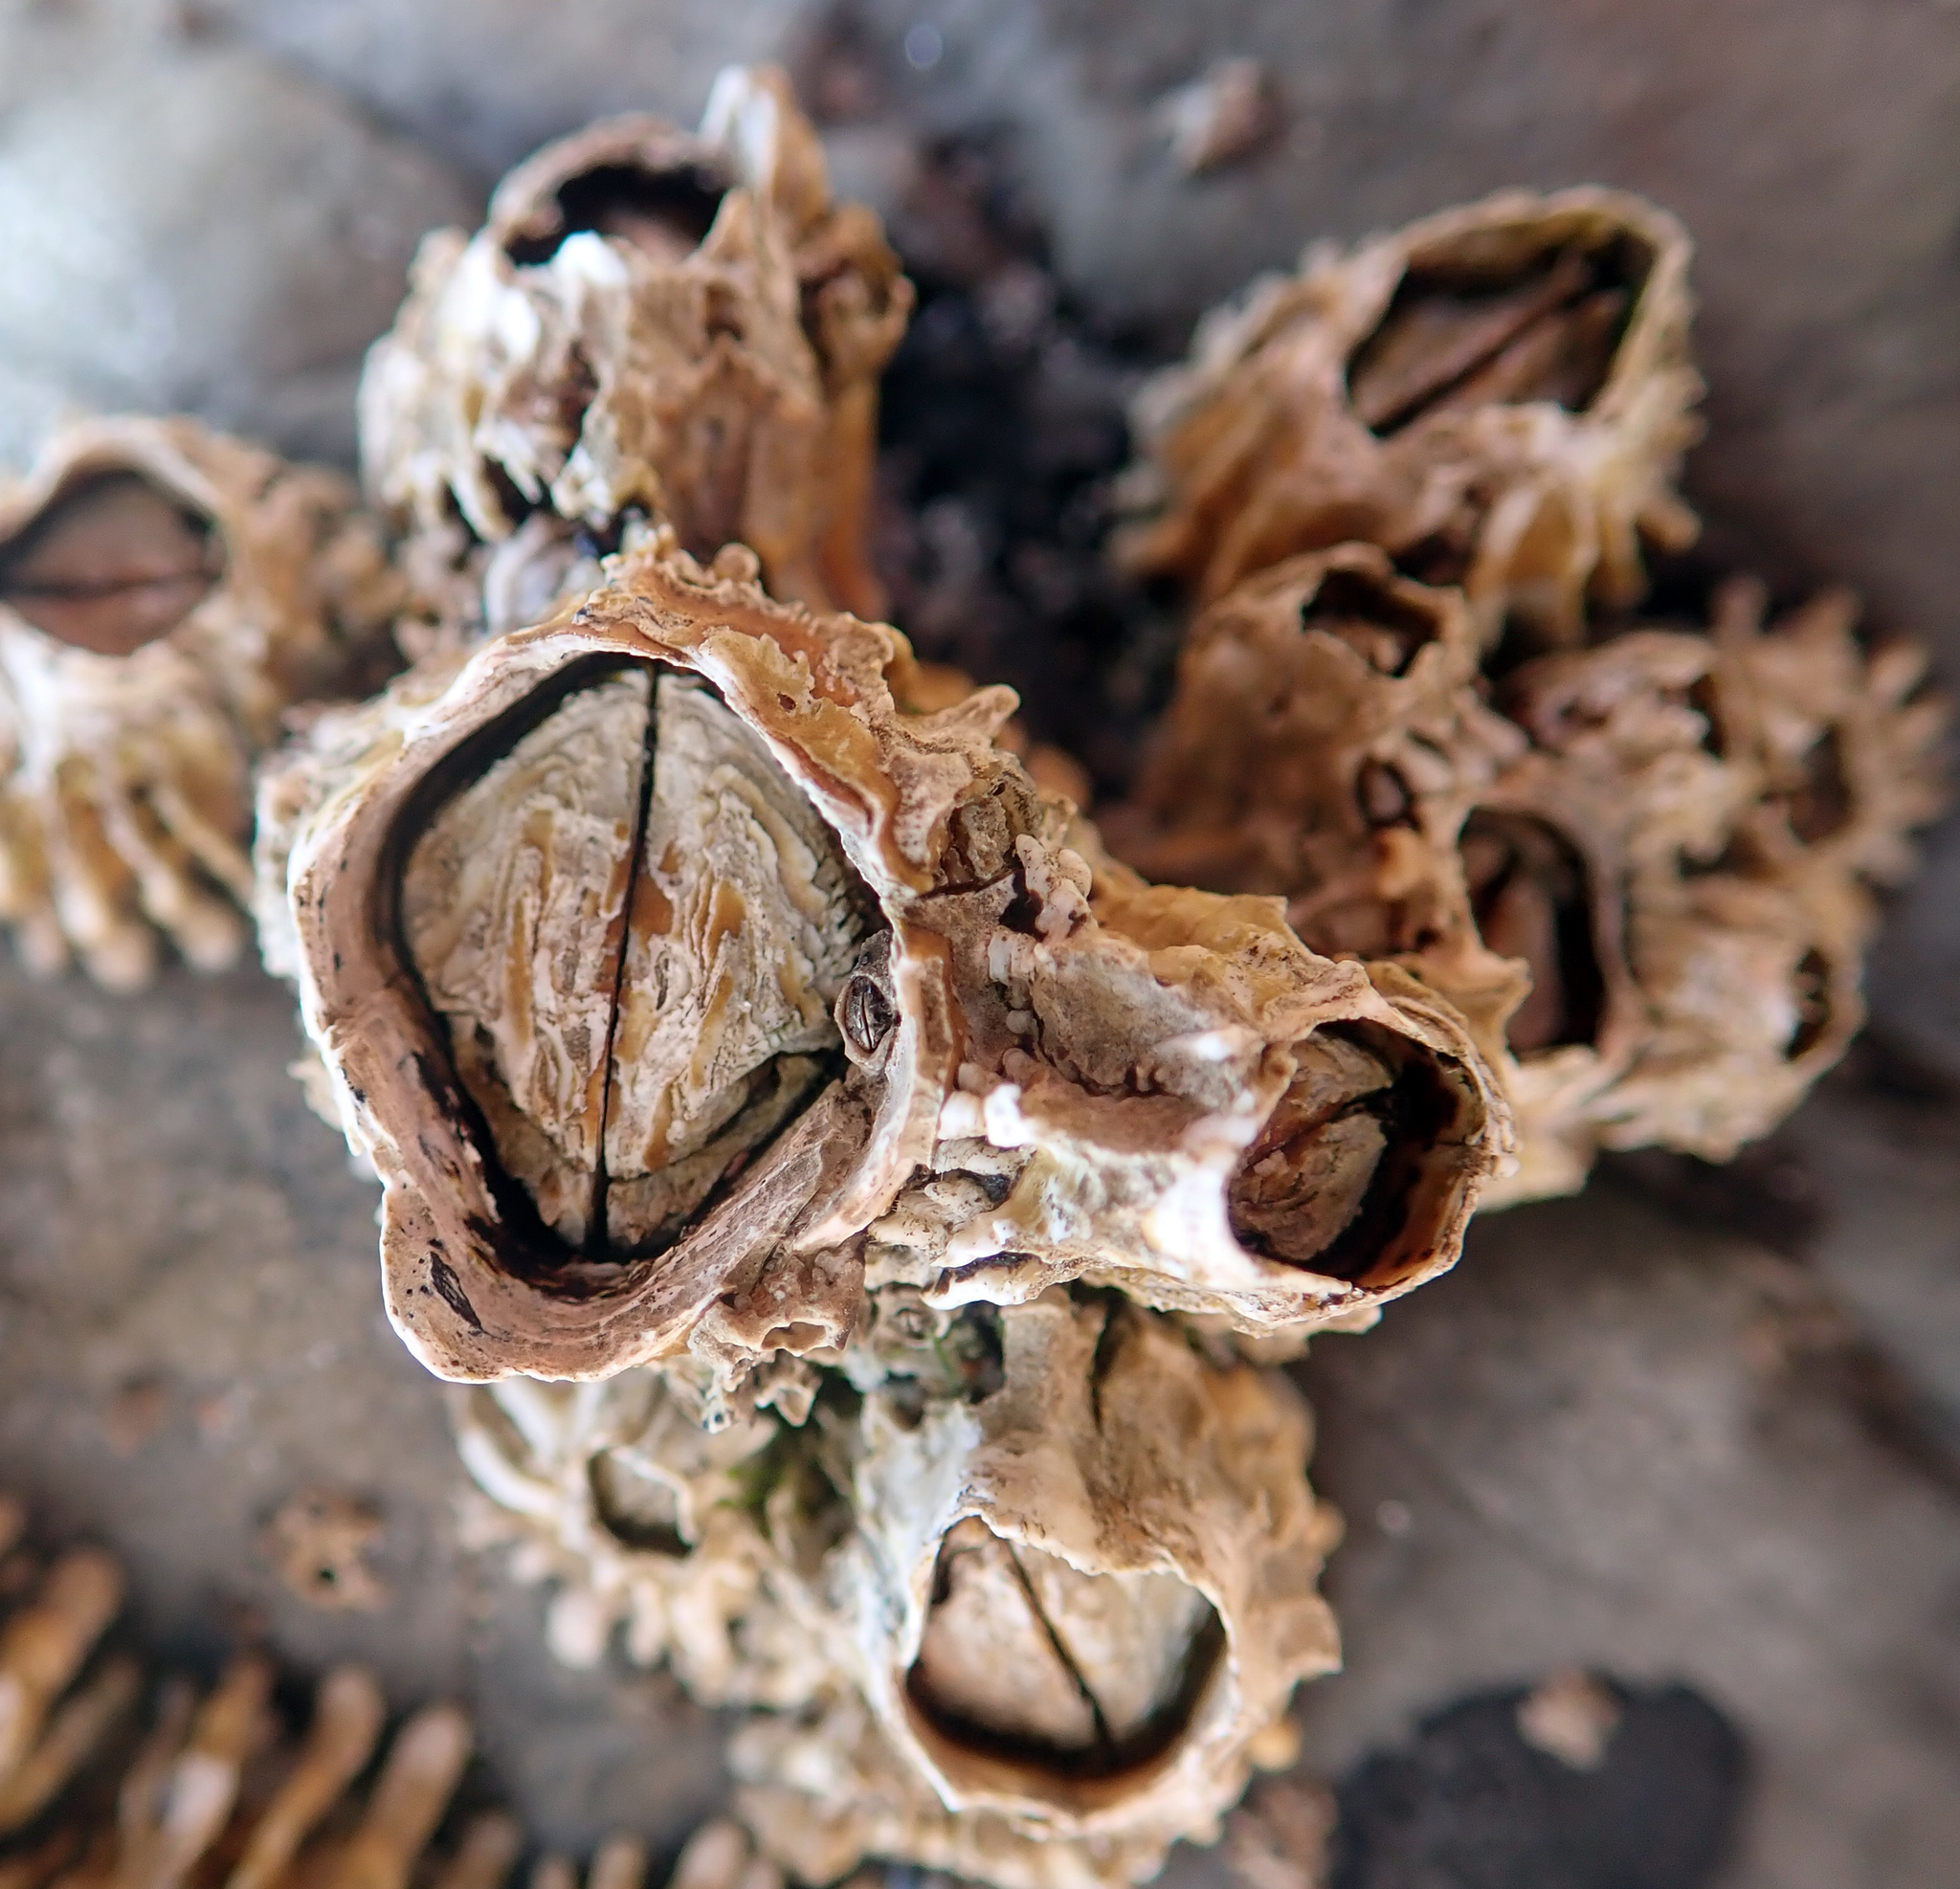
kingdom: Animalia
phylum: Arthropoda
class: Maxillopoda
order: Sessilia
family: Tetraclitidae
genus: Epopella
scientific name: Epopella plicata
